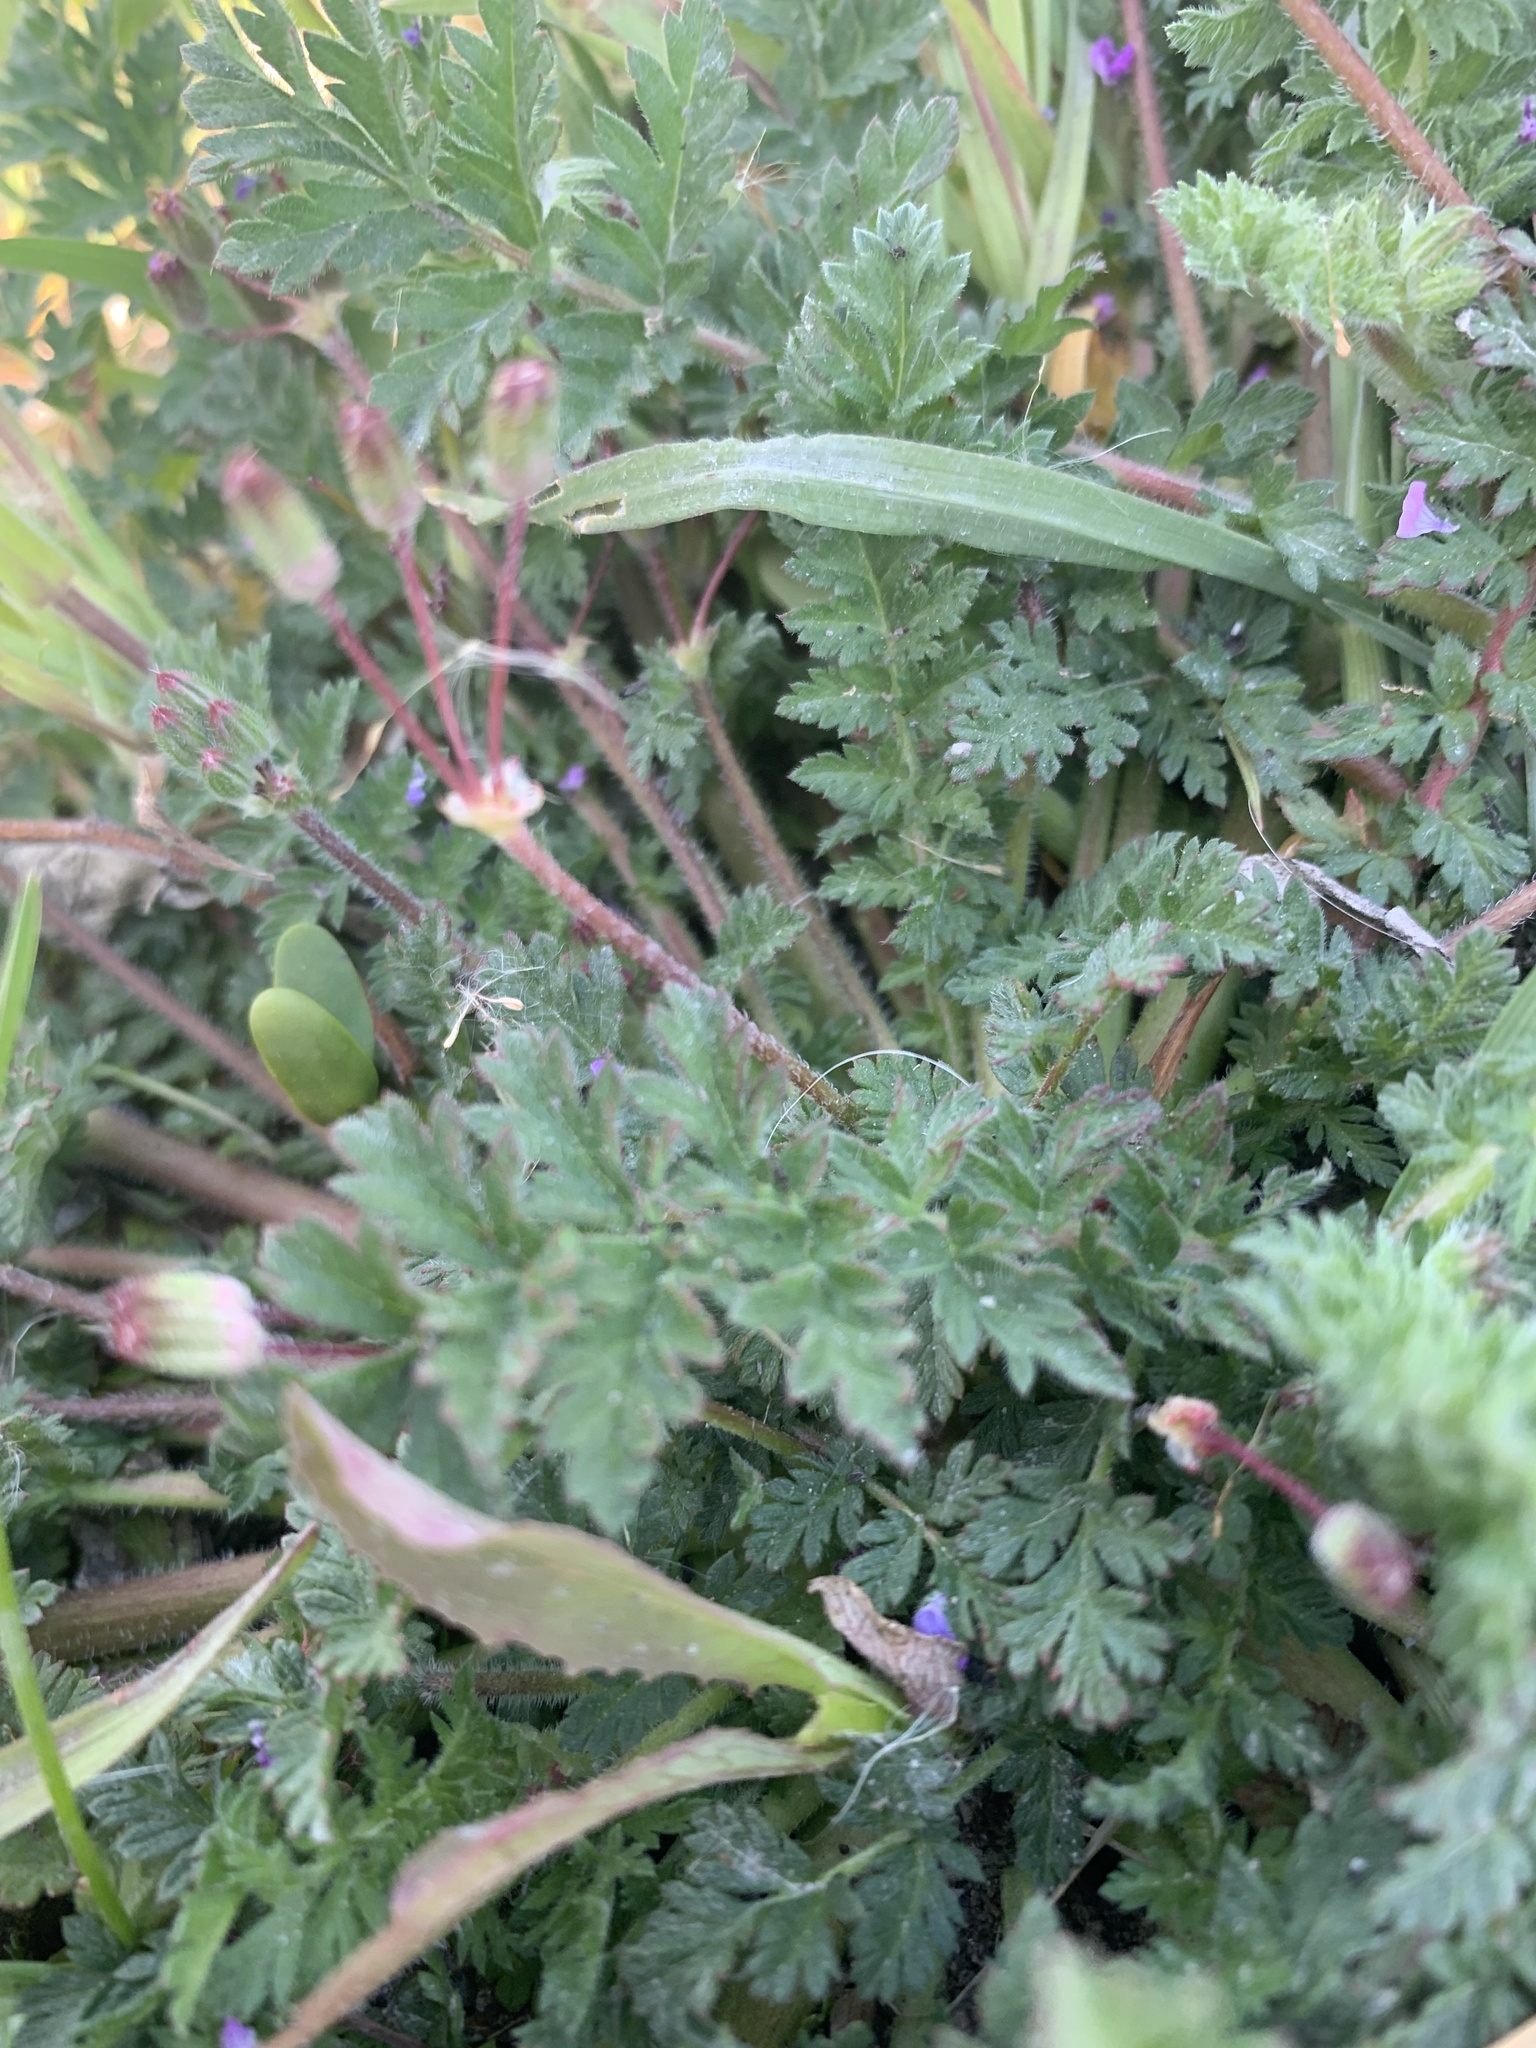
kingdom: Plantae
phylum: Tracheophyta
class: Magnoliopsida
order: Geraniales
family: Geraniaceae
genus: Erodium
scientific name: Erodium cicutarium
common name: Common stork's-bill
